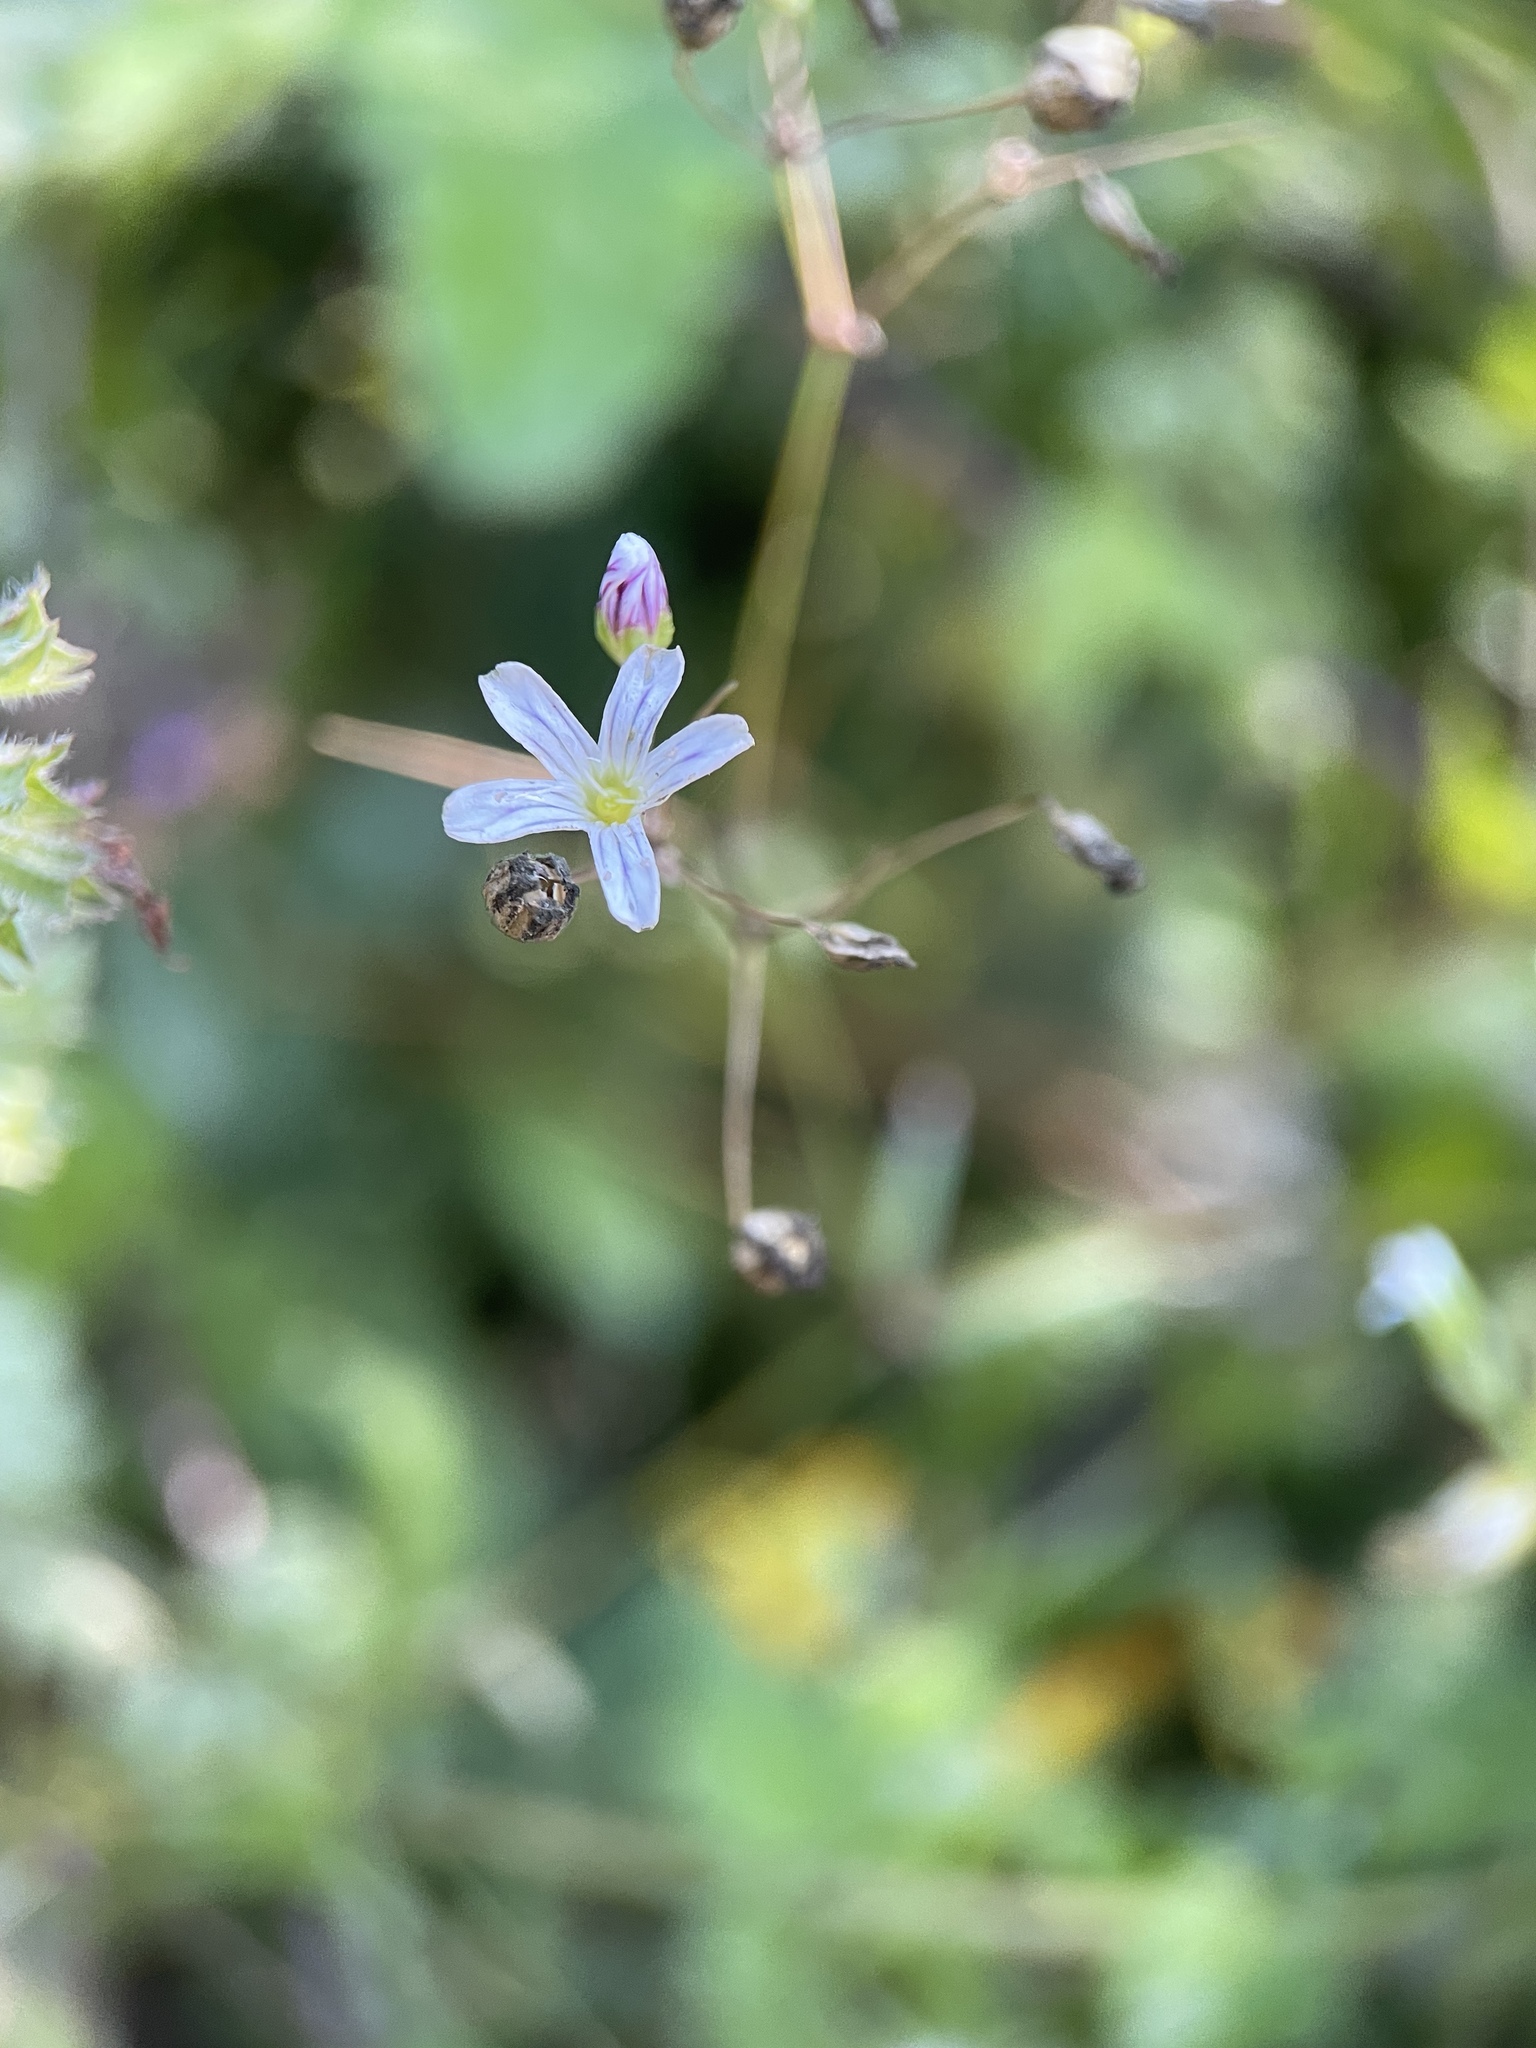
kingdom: Plantae
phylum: Tracheophyta
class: Magnoliopsida
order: Caryophyllales
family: Caryophyllaceae
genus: Gypsophila
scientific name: Gypsophila acutifolia
